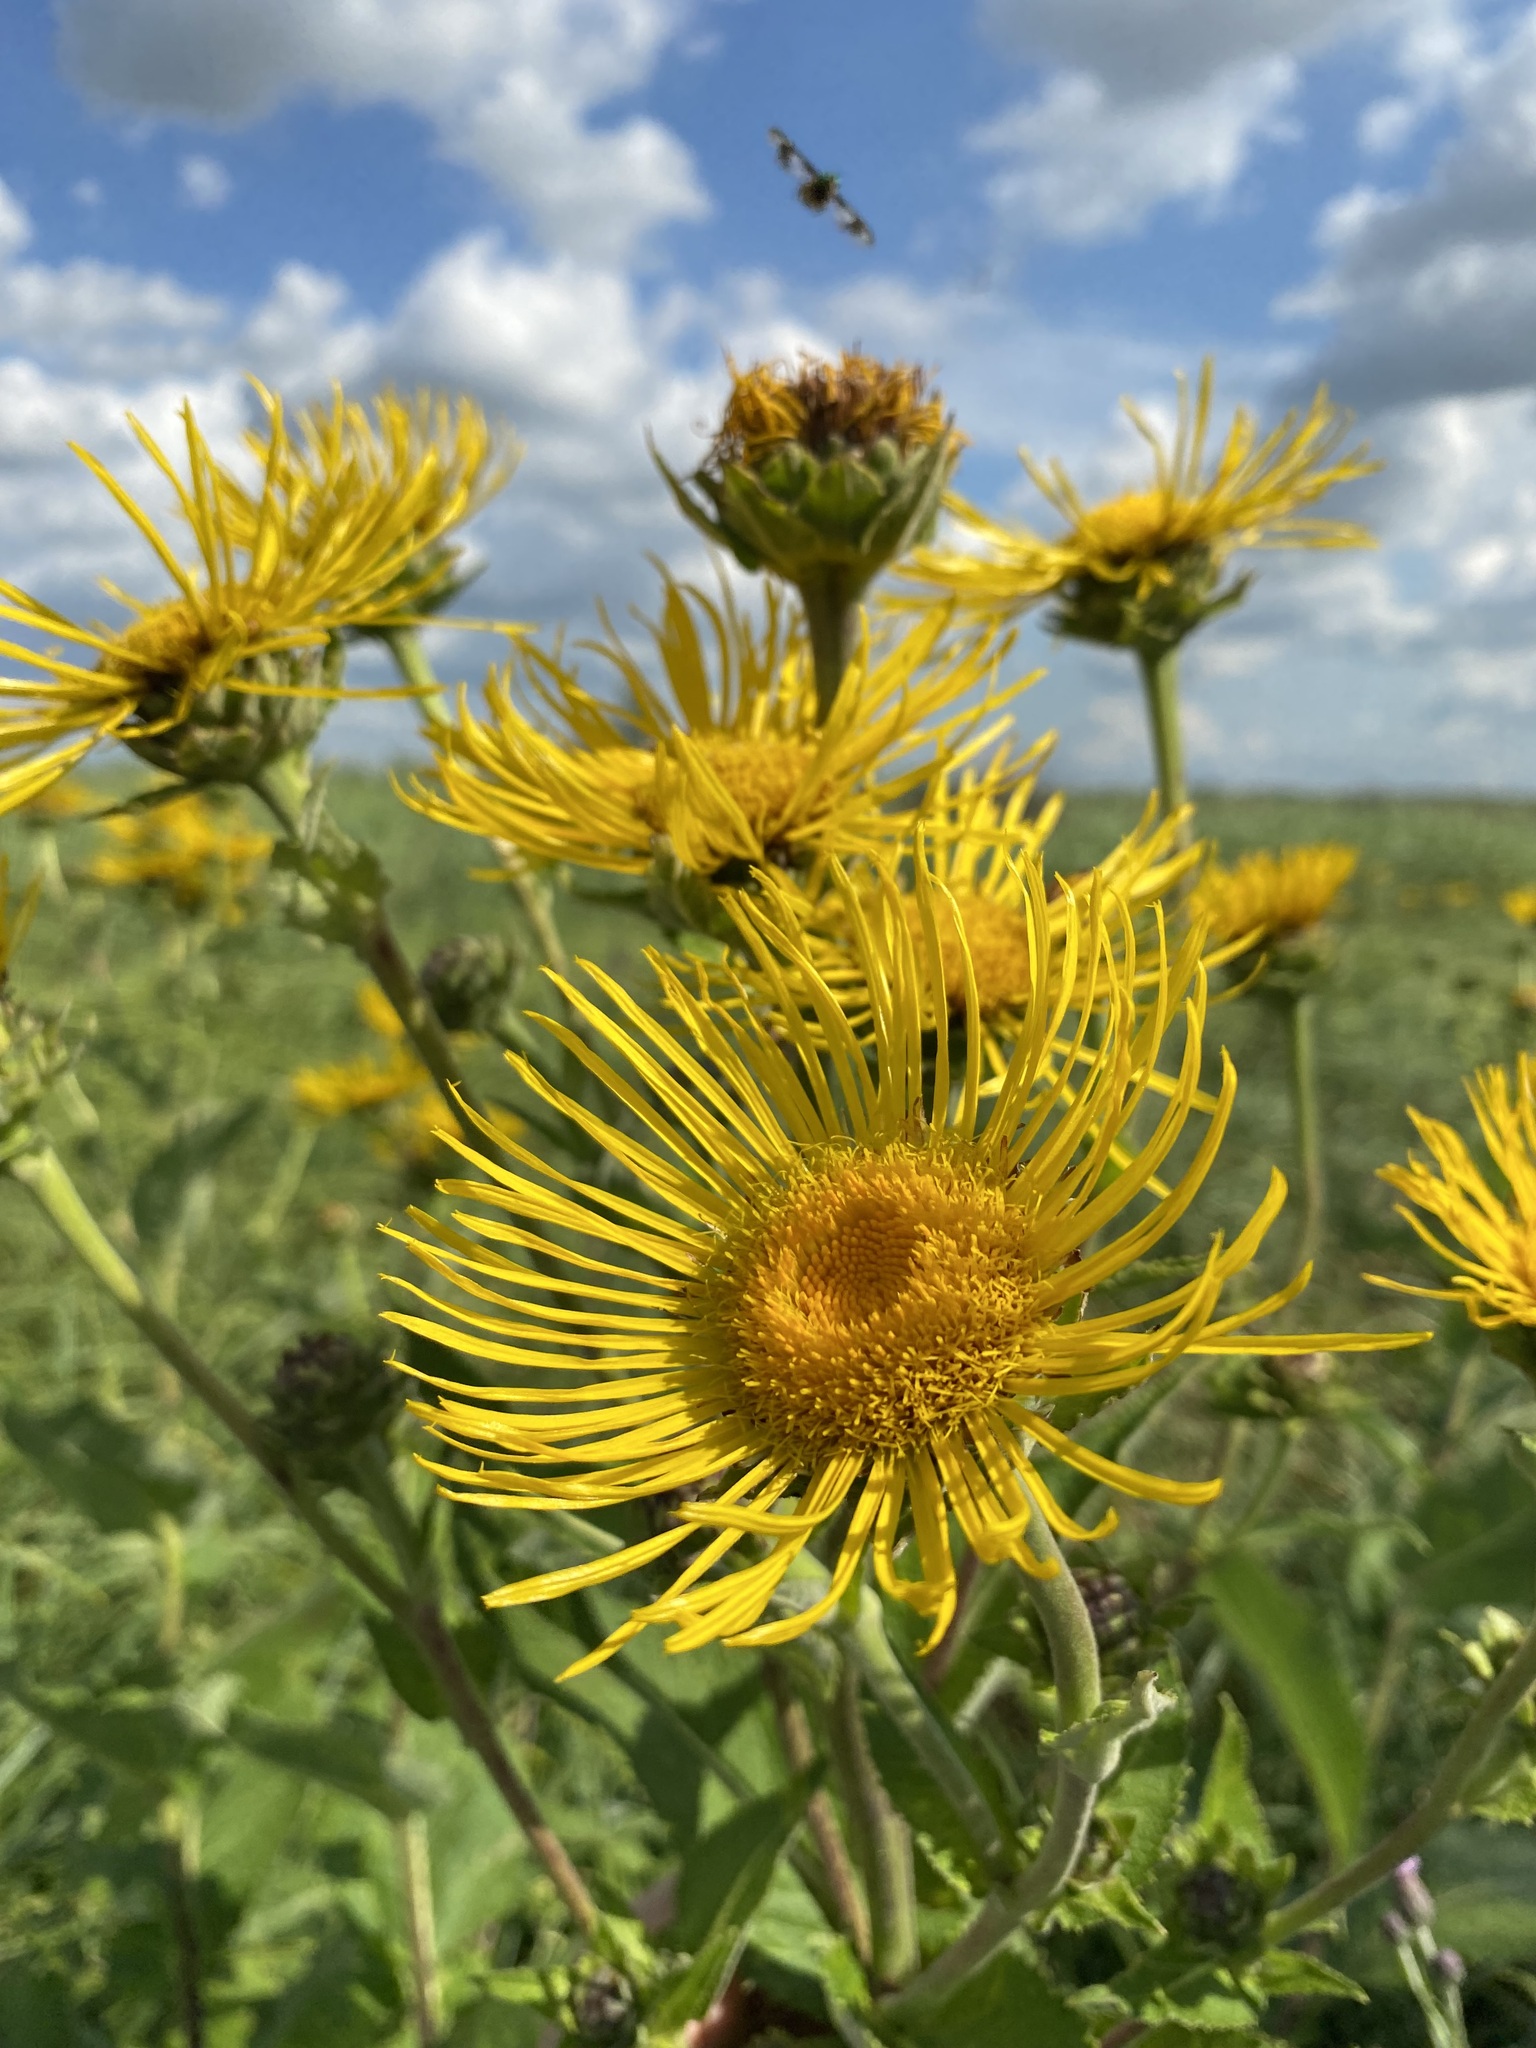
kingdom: Plantae
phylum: Tracheophyta
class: Magnoliopsida
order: Asterales
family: Asteraceae
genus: Inula
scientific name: Inula helenium
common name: Elecampane
